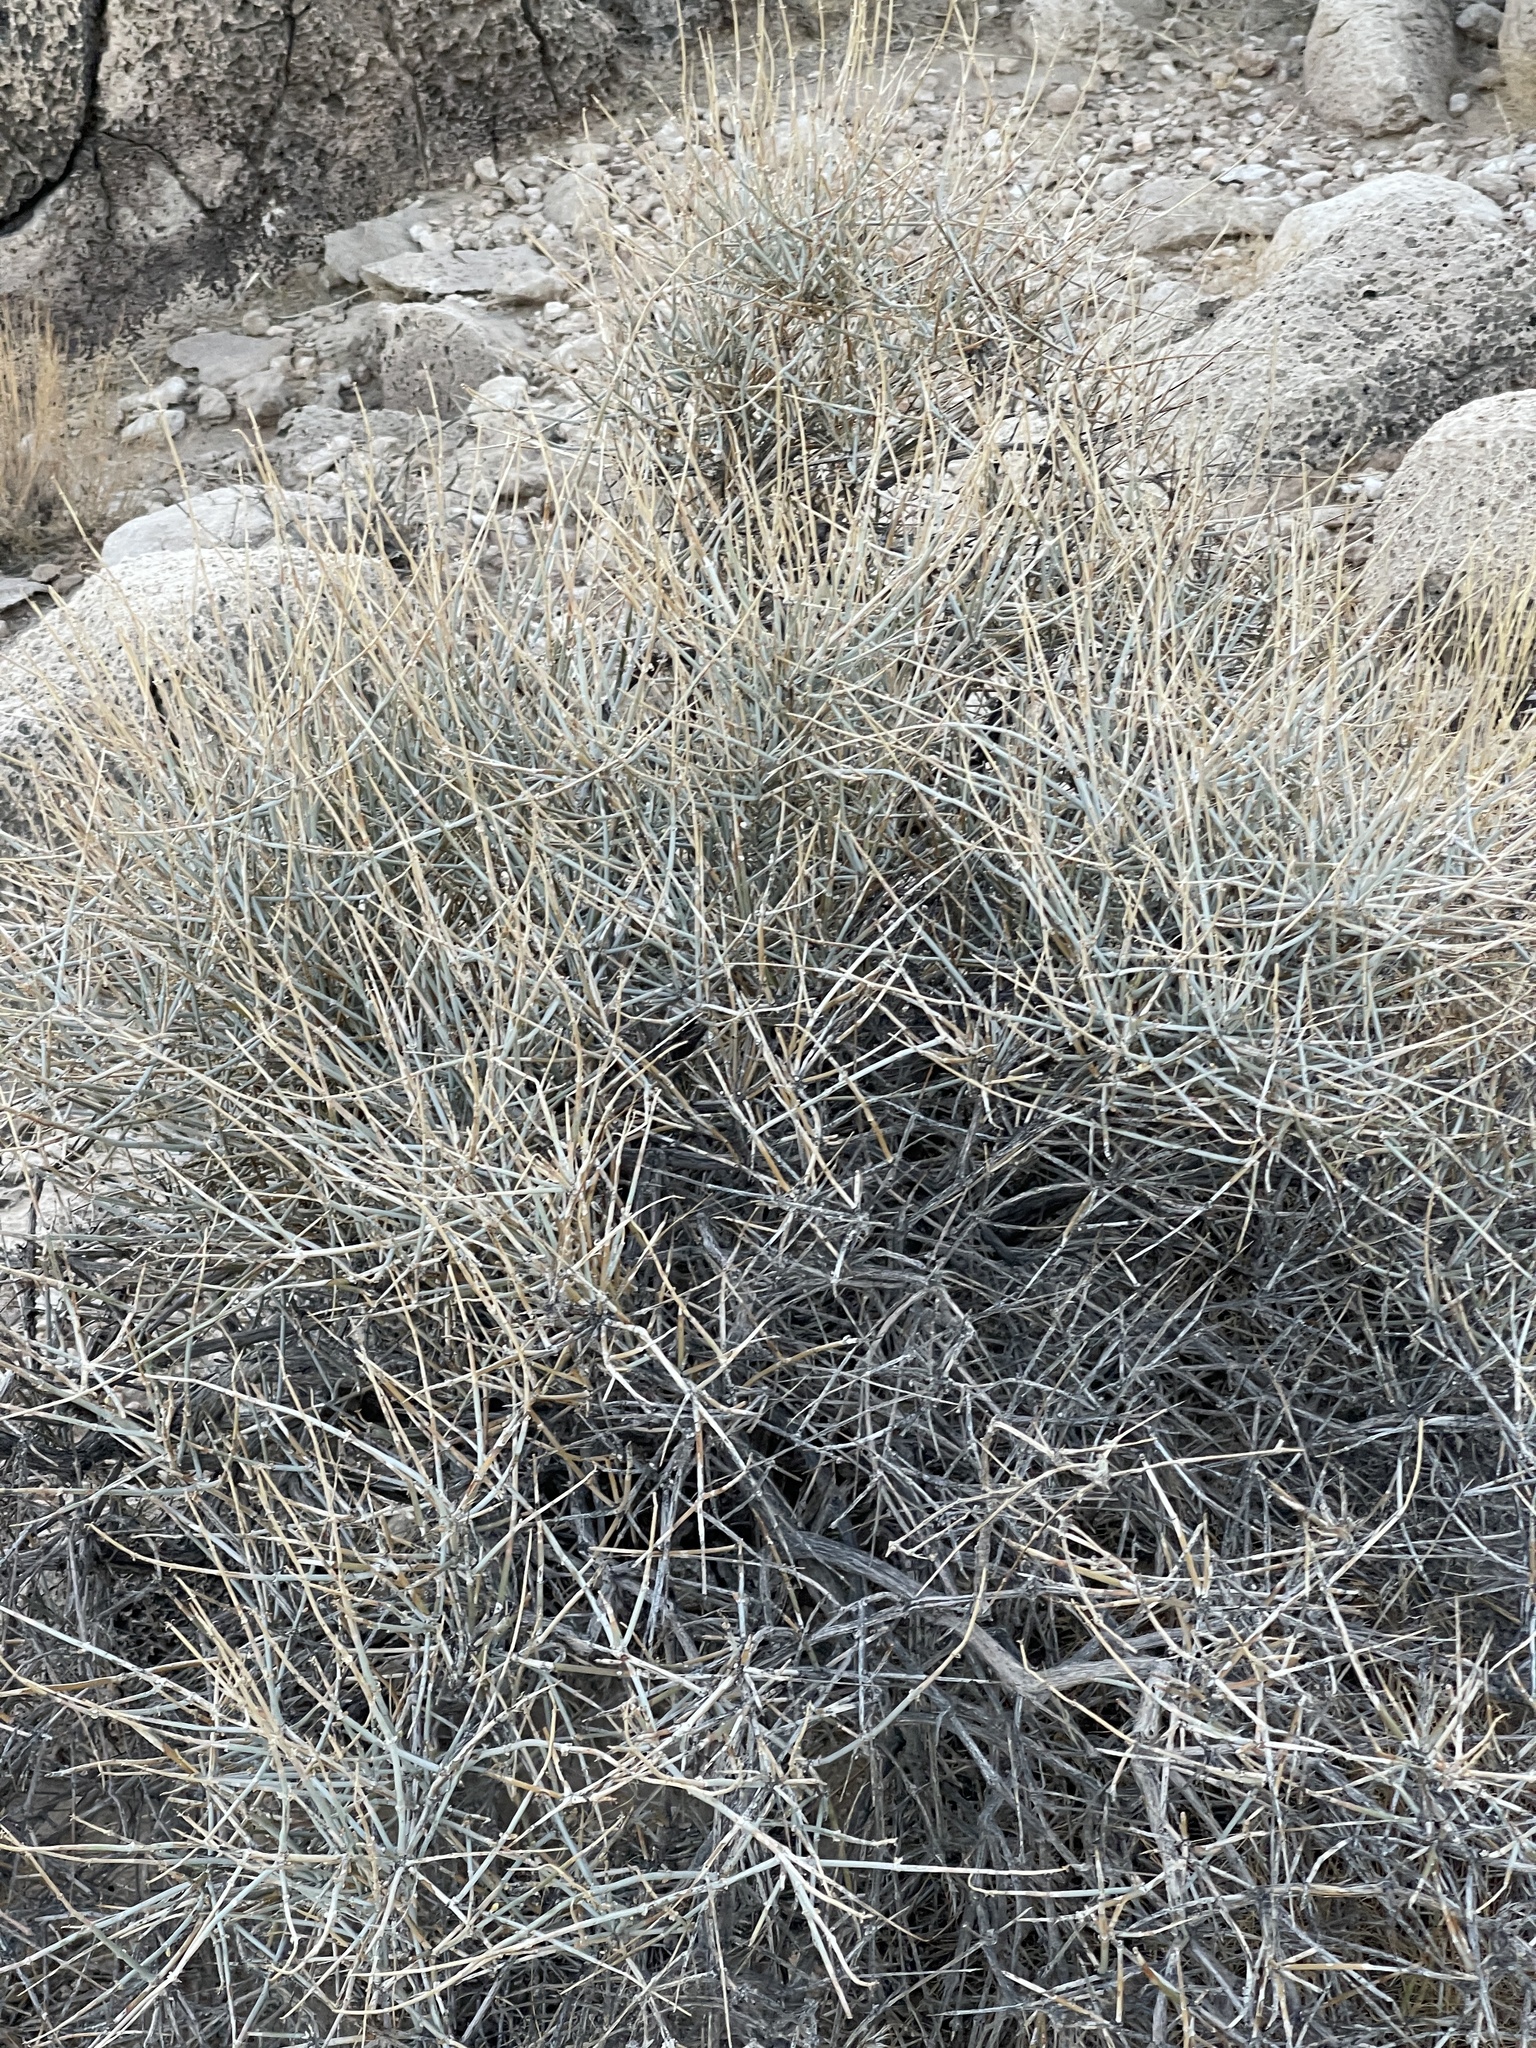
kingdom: Plantae
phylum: Tracheophyta
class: Gnetopsida
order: Ephedrales
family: Ephedraceae
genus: Ephedra
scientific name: Ephedra nevadensis
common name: Gray ephedra
